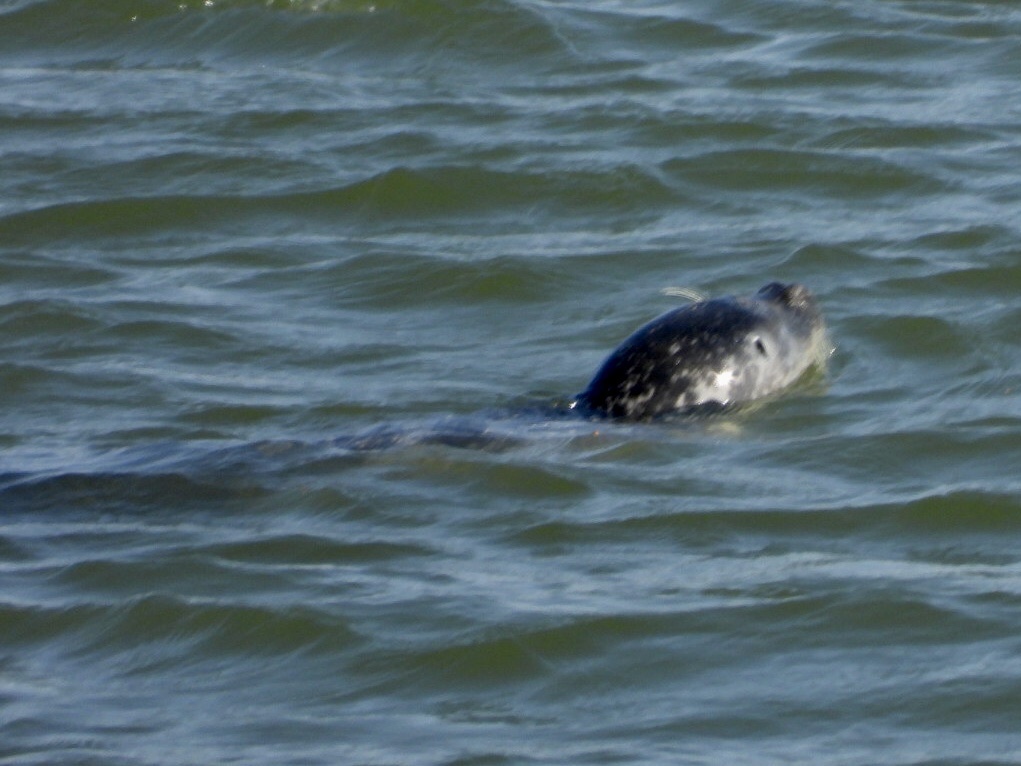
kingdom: Animalia
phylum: Chordata
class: Mammalia
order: Carnivora
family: Phocidae
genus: Phoca
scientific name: Phoca vitulina
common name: Harbor seal
